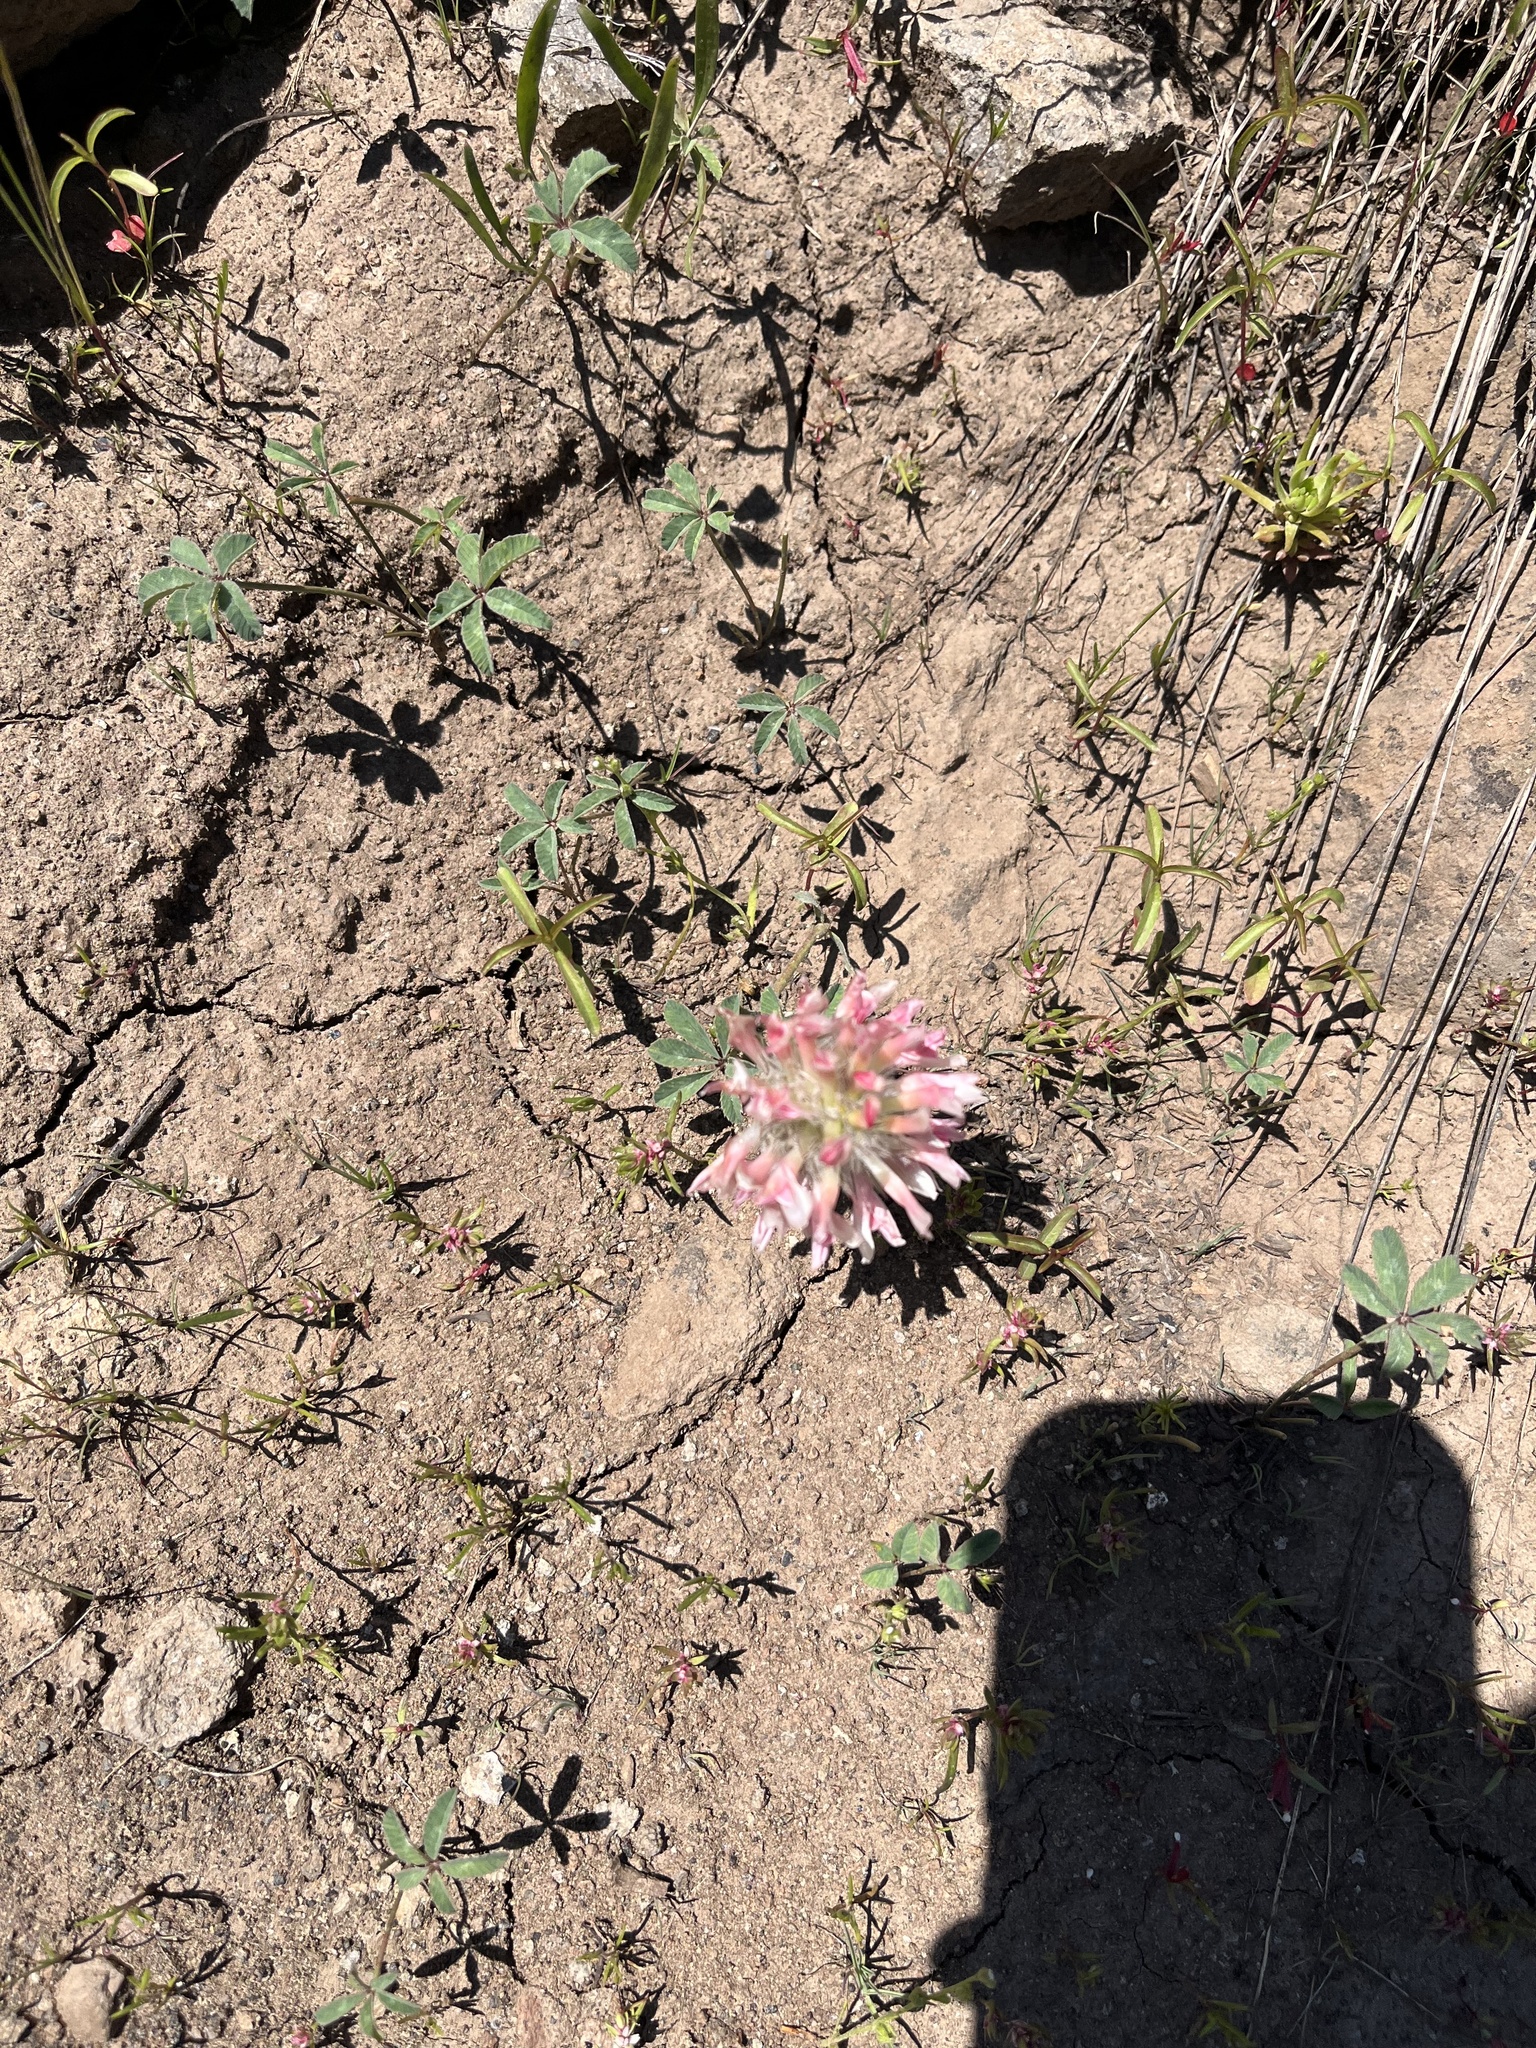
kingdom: Plantae
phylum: Tracheophyta
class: Magnoliopsida
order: Fabales
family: Fabaceae
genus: Trifolium
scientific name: Trifolium macrocephalum
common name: Large-head clover
